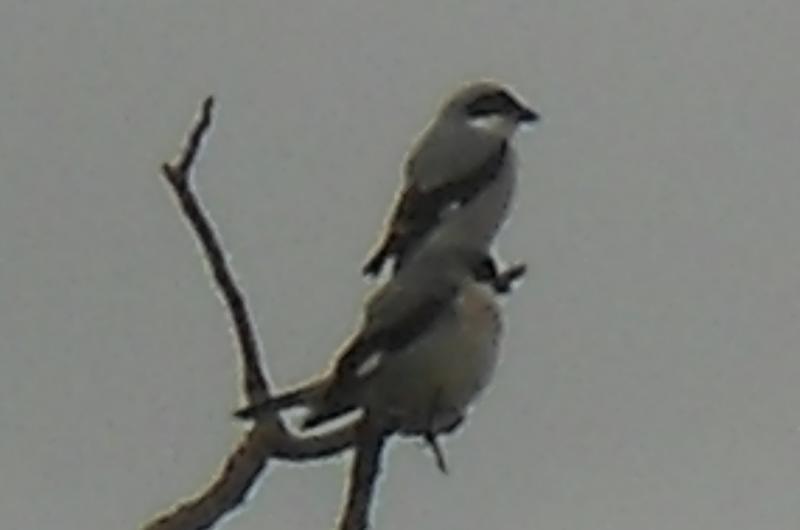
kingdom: Animalia
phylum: Chordata
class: Aves
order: Passeriformes
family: Laniidae
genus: Lanius
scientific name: Lanius minor
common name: Lesser grey shrike
